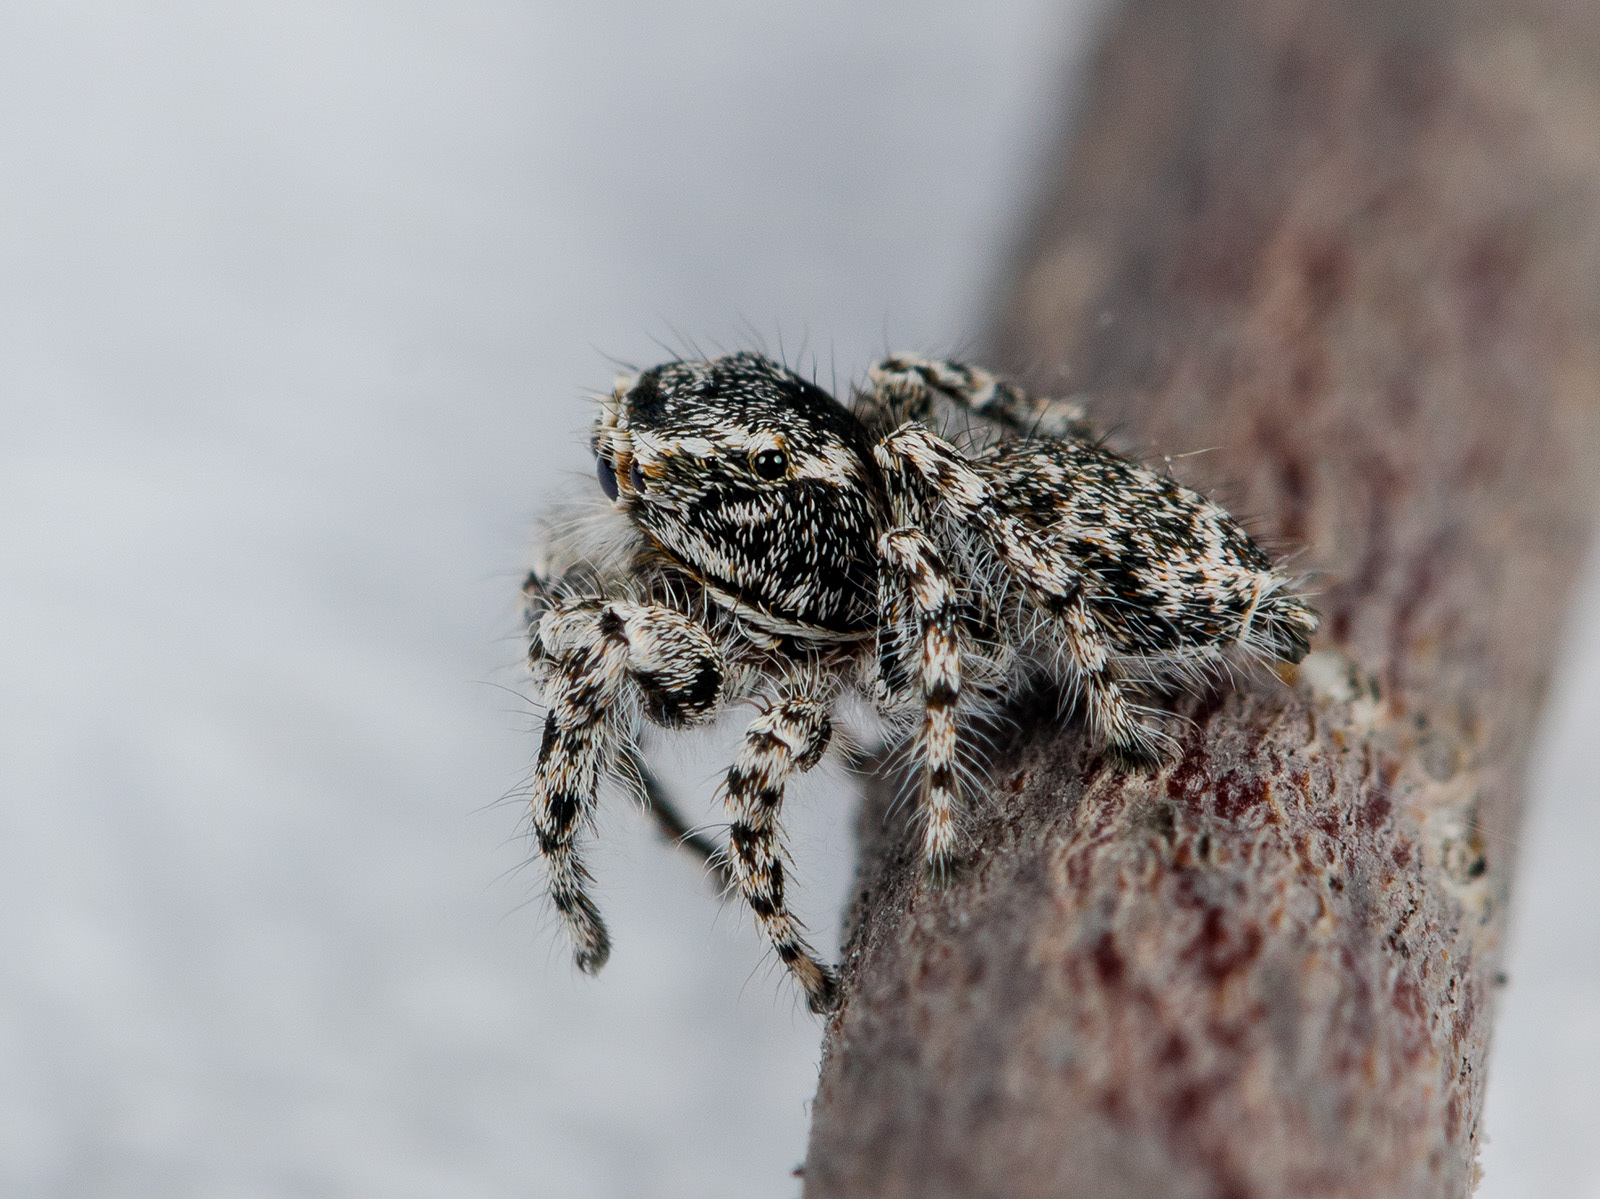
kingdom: Animalia
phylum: Arthropoda
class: Arachnida
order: Araneae
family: Salticidae
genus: Pseudomogrus
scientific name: Pseudomogrus mirabilis
